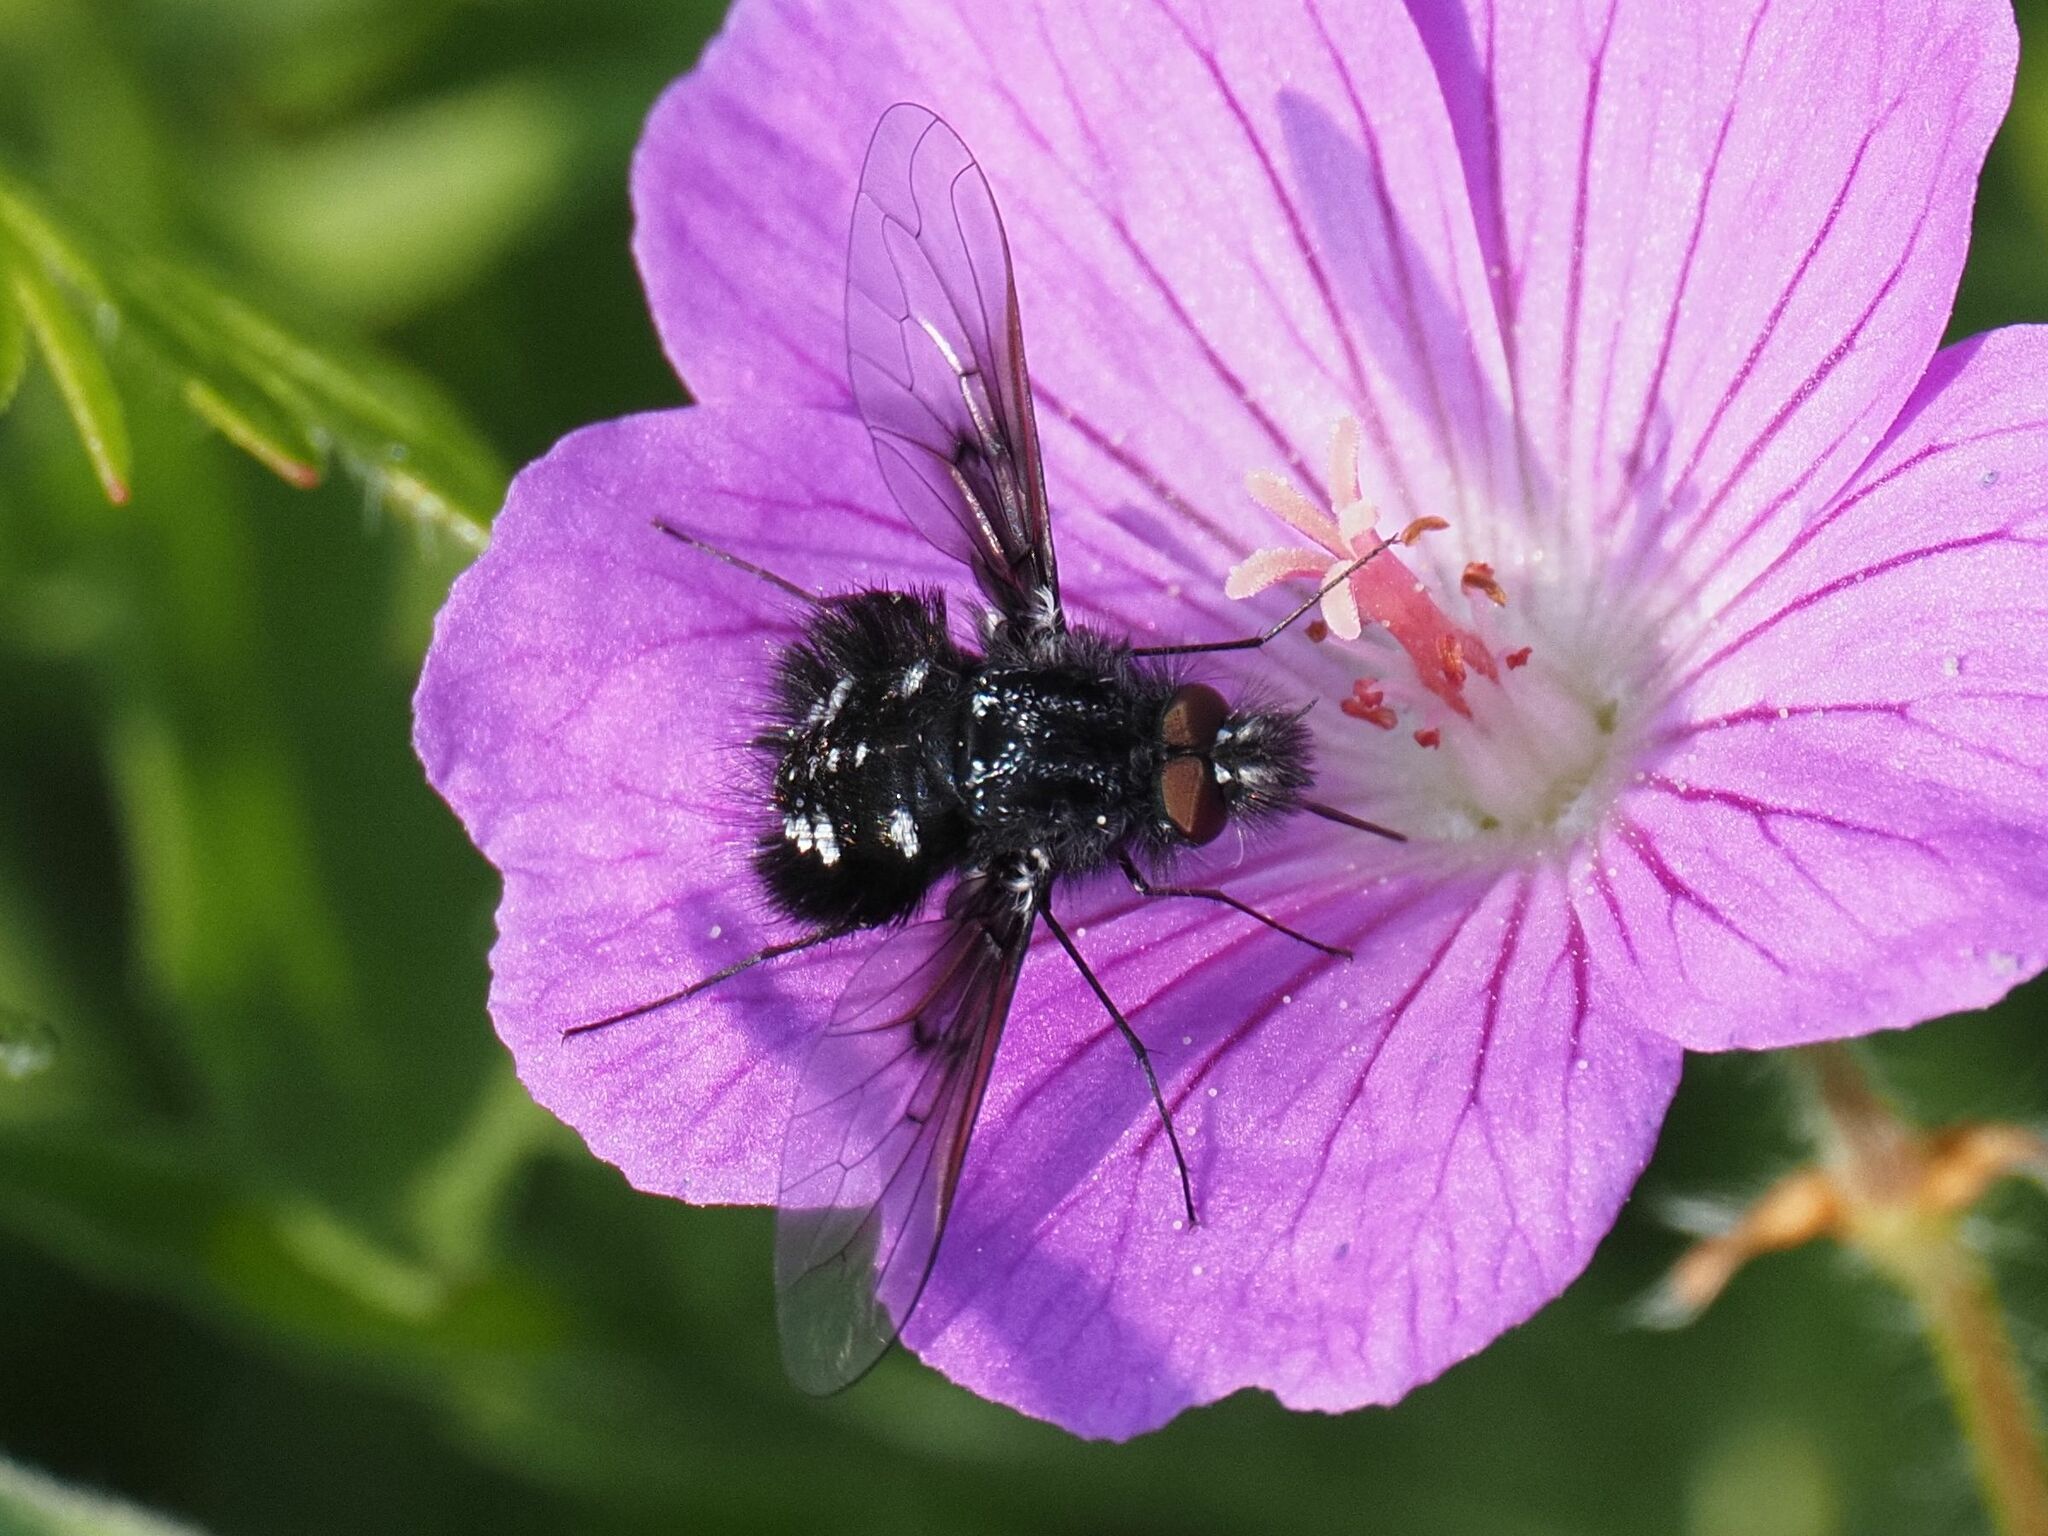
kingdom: Animalia
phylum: Arthropoda
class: Insecta
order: Diptera
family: Bombyliidae
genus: Bombylella
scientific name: Bombylella atra
